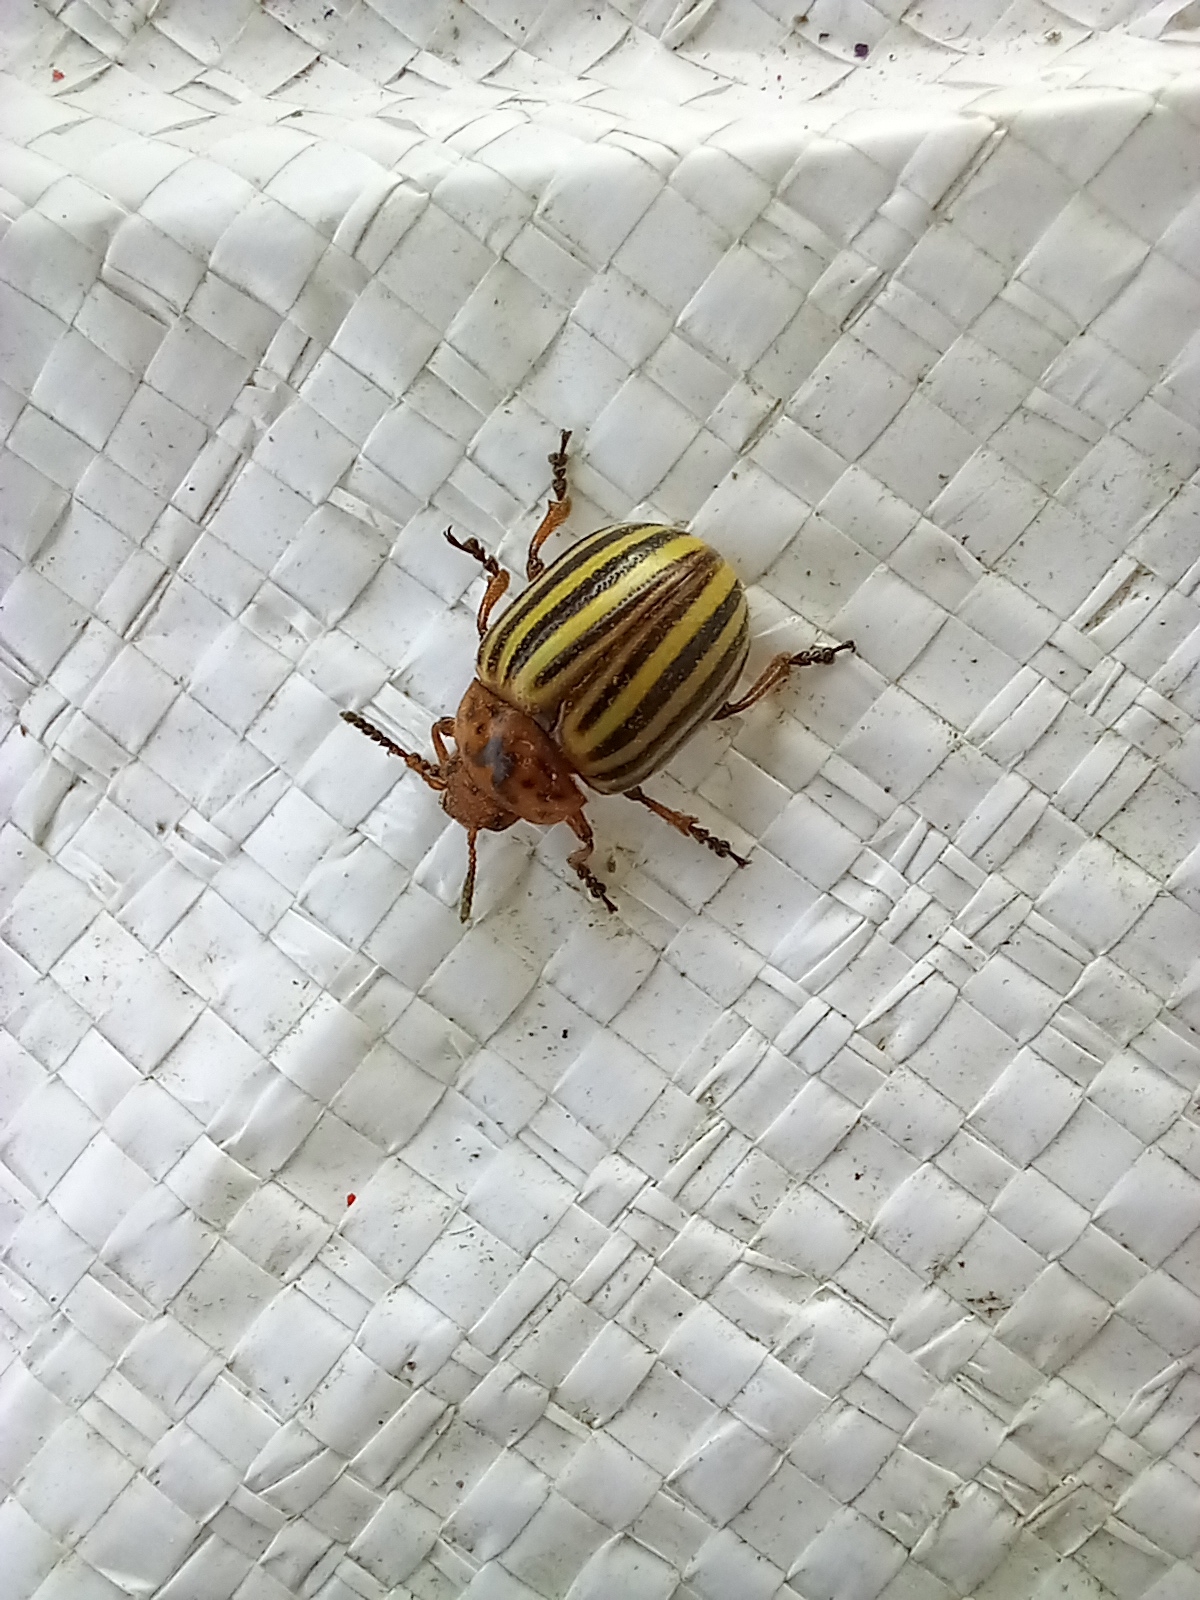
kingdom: Animalia
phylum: Arthropoda
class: Insecta
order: Coleoptera
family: Chrysomelidae
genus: Leptinotarsa
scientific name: Leptinotarsa decemlineata
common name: Colorado potato beetle
